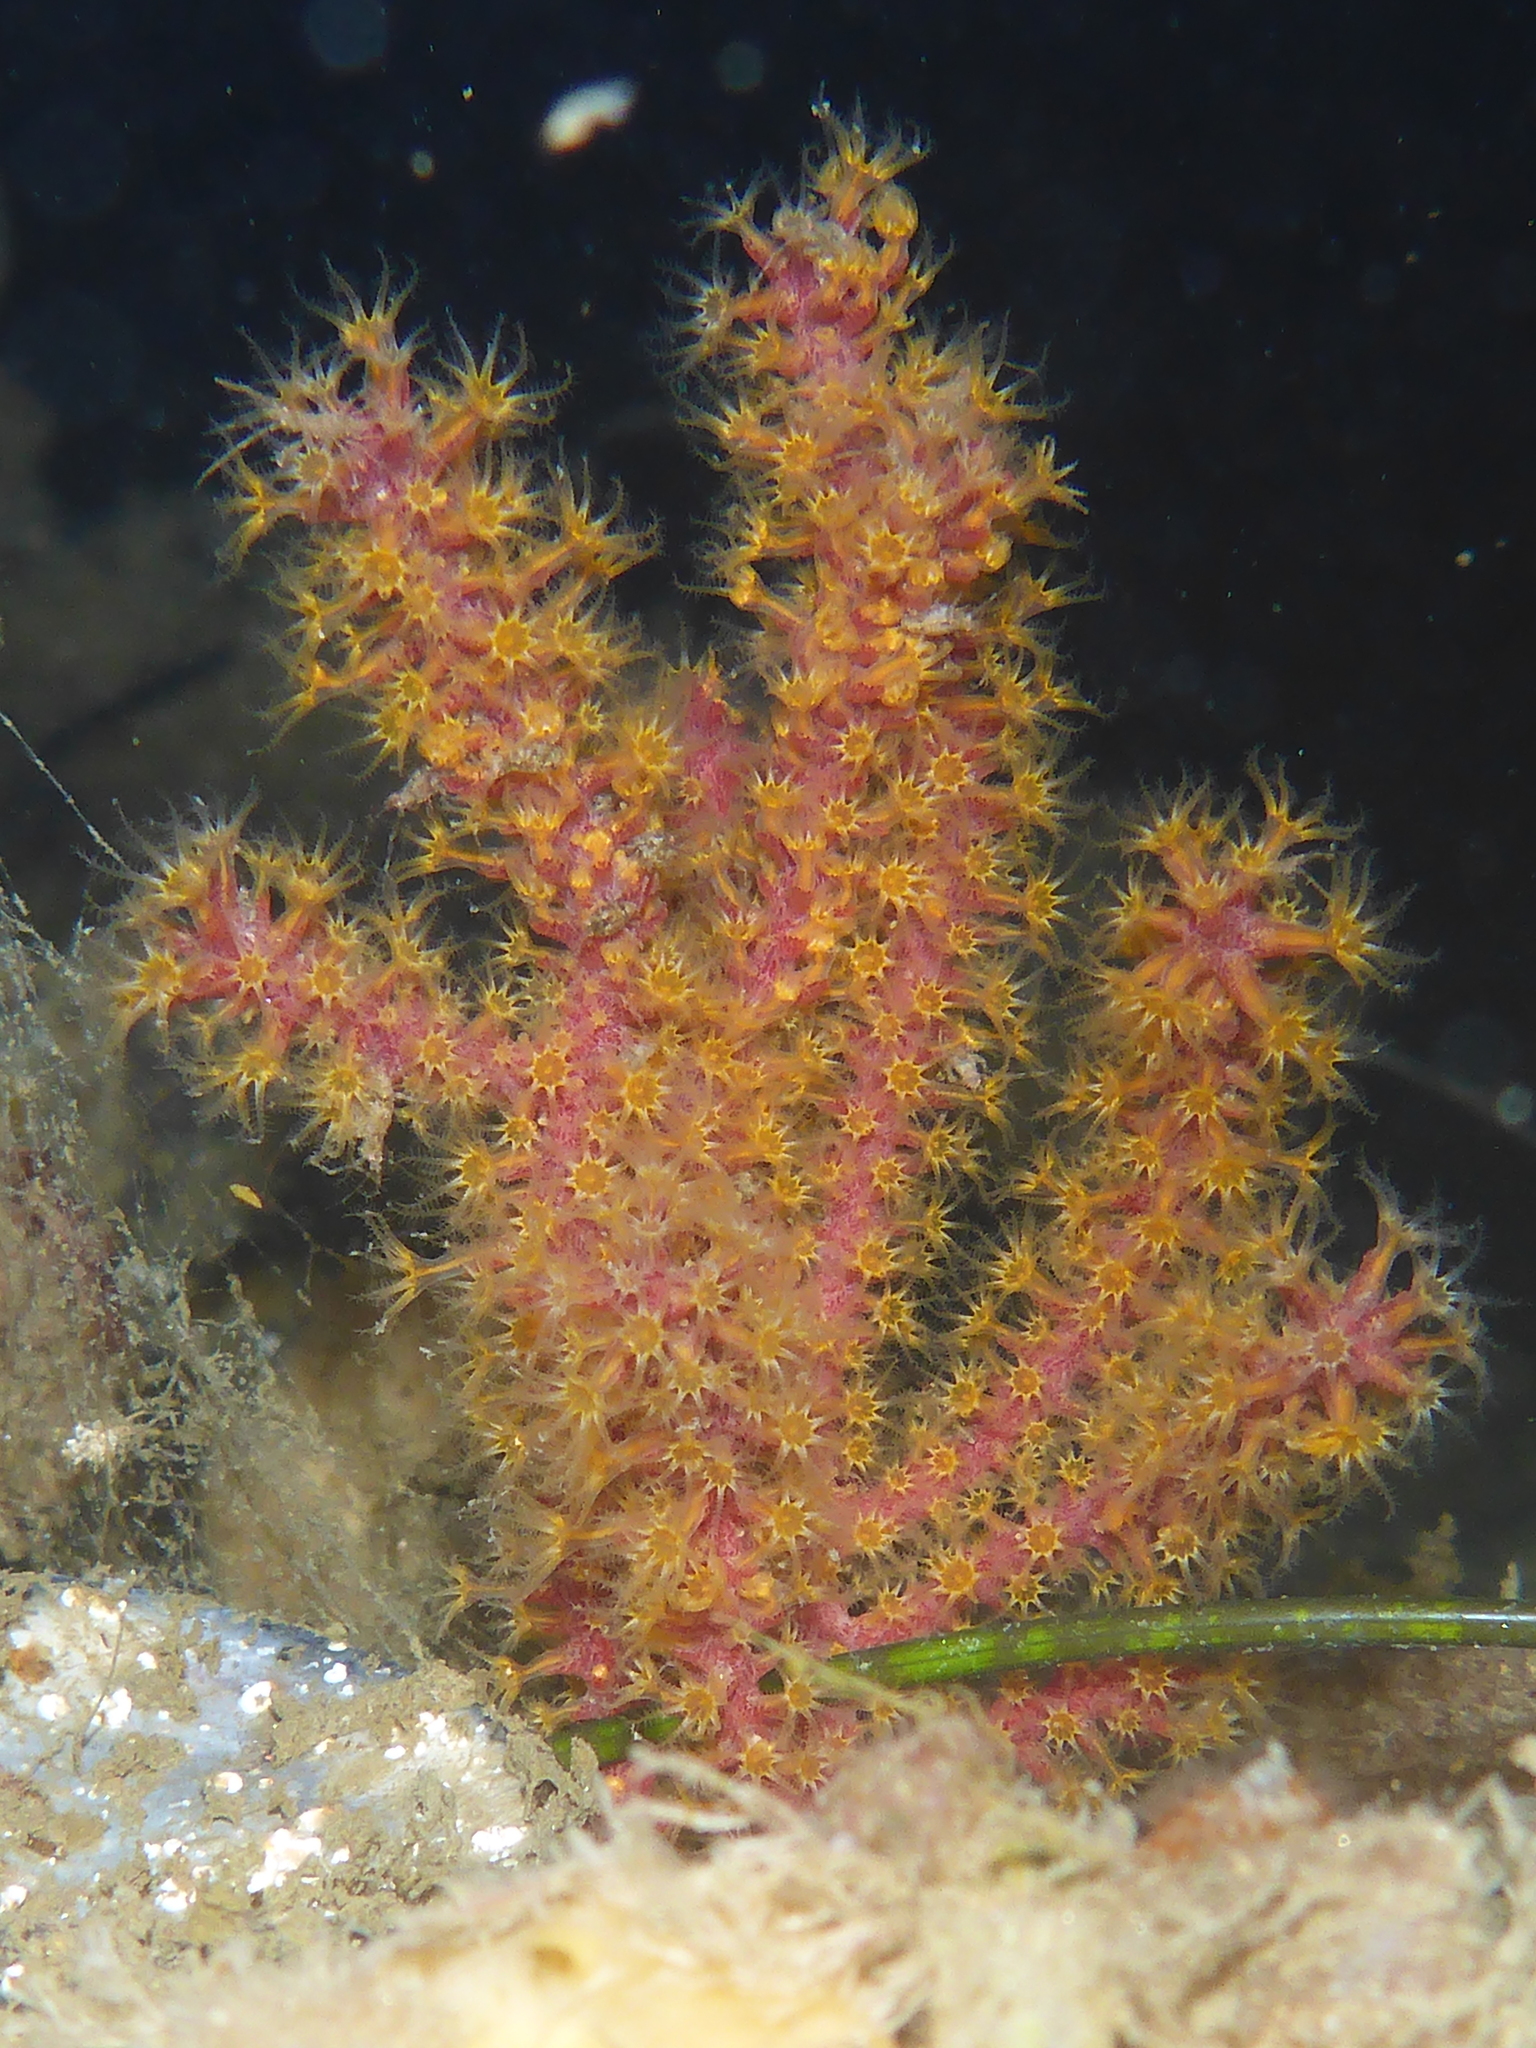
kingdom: Animalia
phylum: Cnidaria
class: Anthozoa
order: Malacalcyonacea
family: Plexauridae
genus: Muricea
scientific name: Muricea californica
